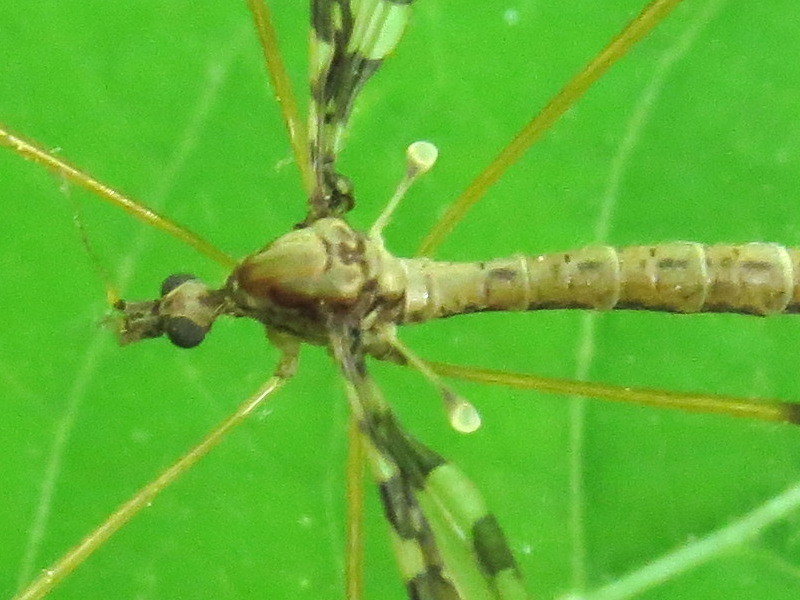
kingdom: Animalia
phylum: Arthropoda
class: Insecta
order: Diptera
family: Limoniidae
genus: Epiphragma
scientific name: Epiphragma fasciapenne
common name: Band-winged crane fly
